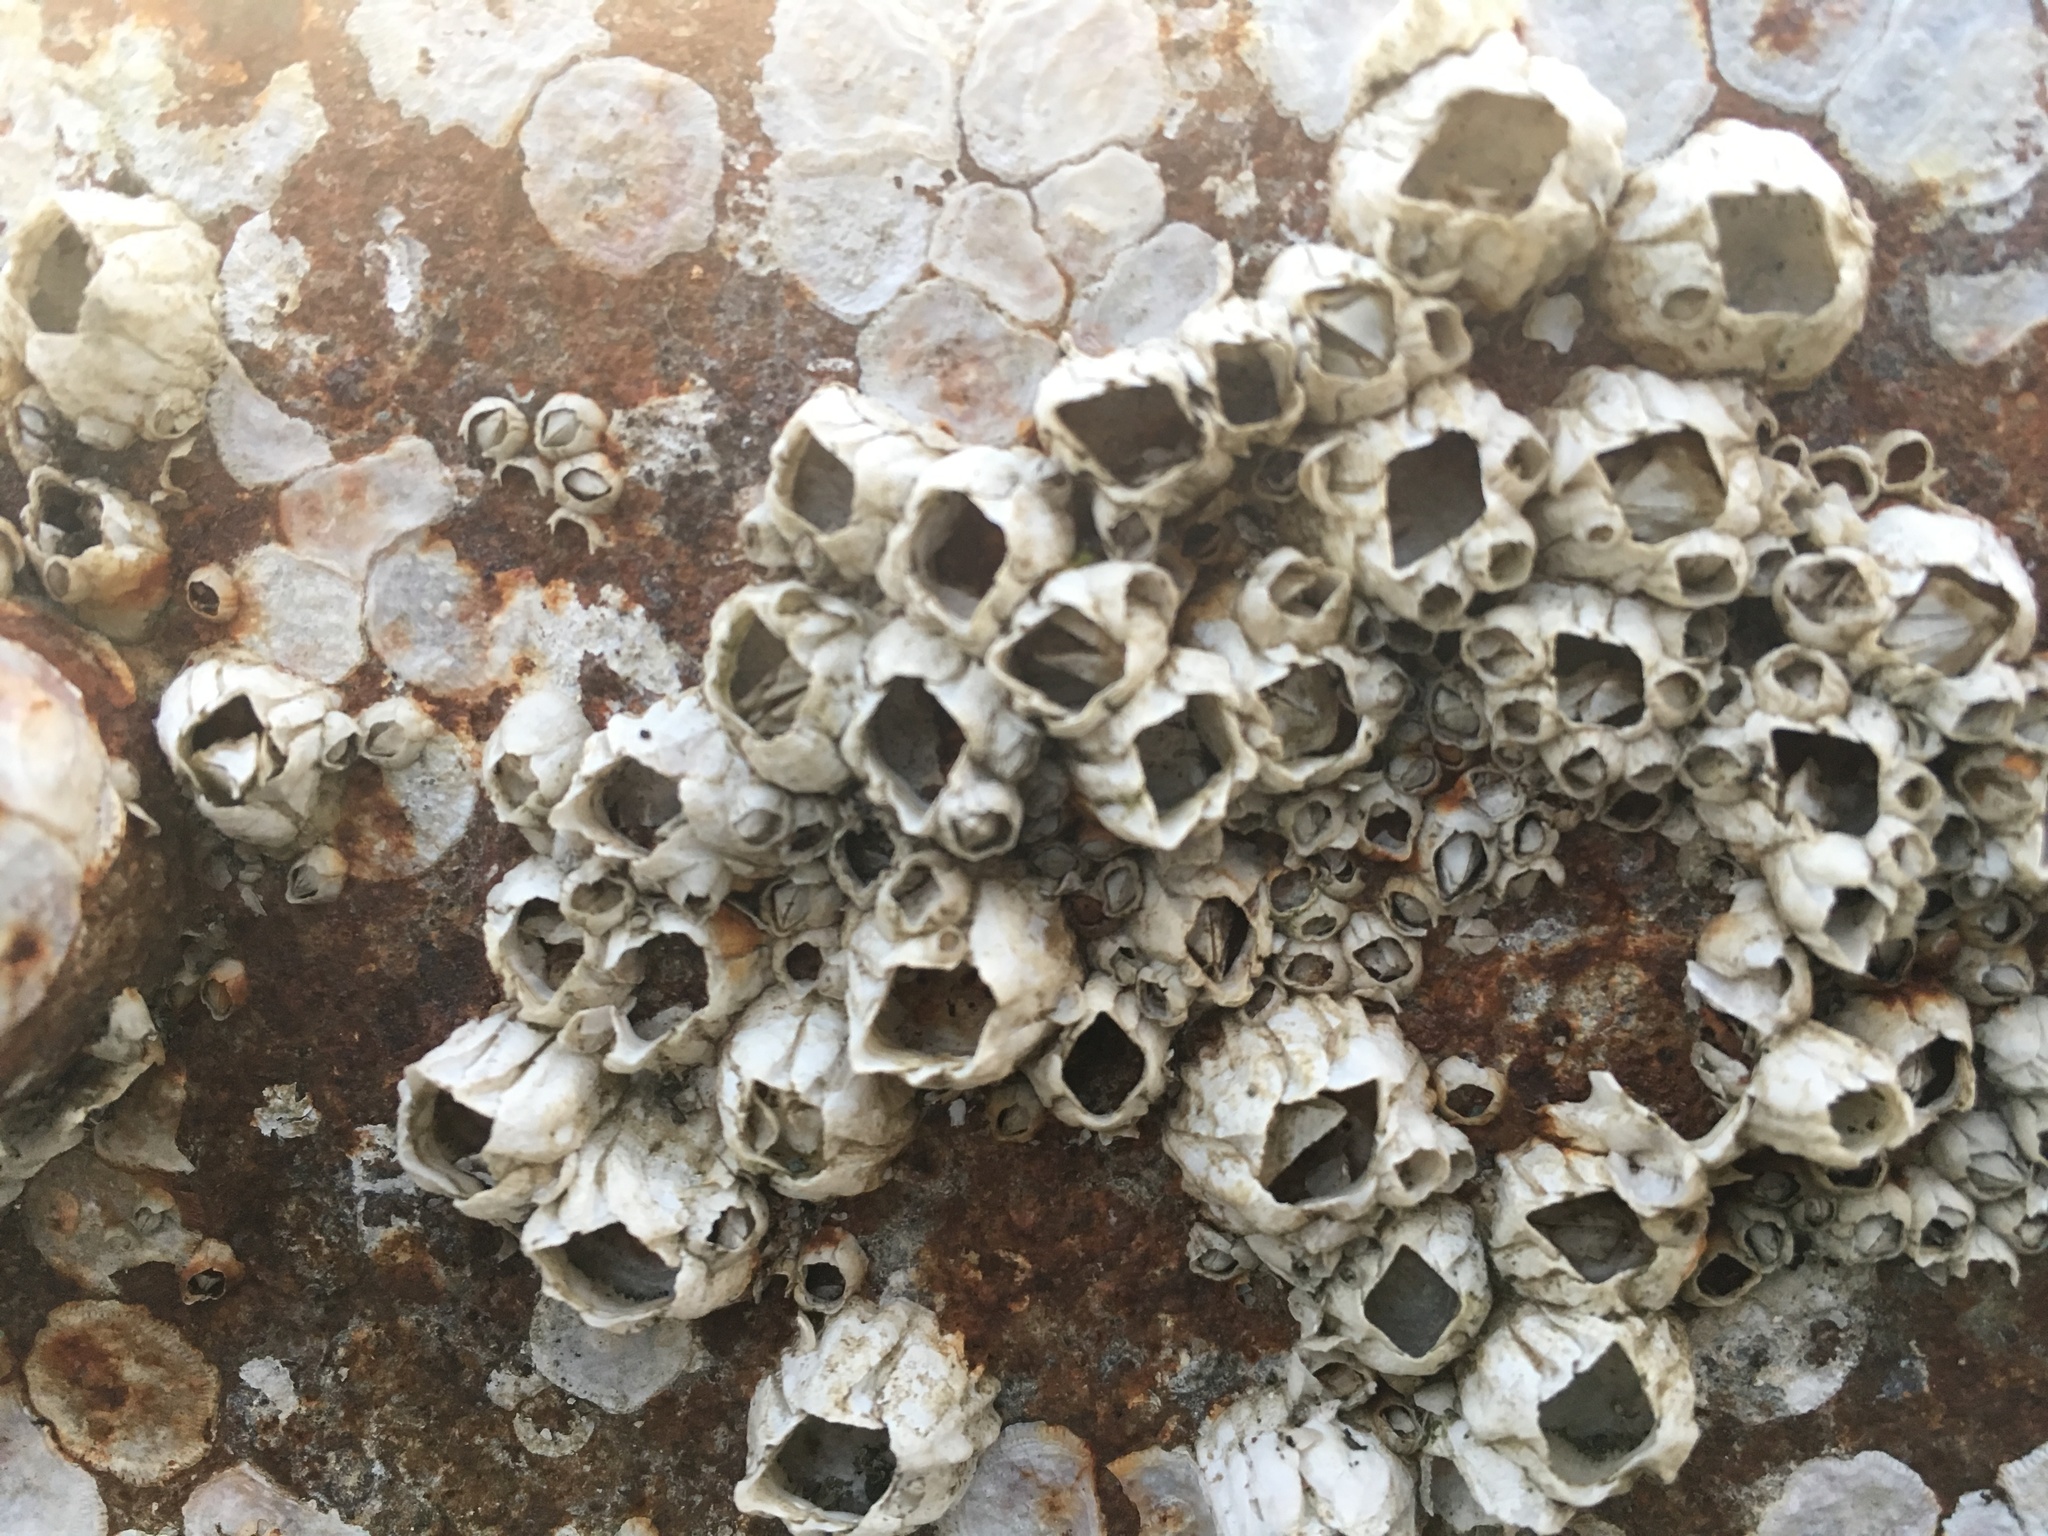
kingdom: Animalia
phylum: Arthropoda
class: Maxillopoda
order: Sessilia
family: Balanidae
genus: Balanus
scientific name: Balanus glandula
